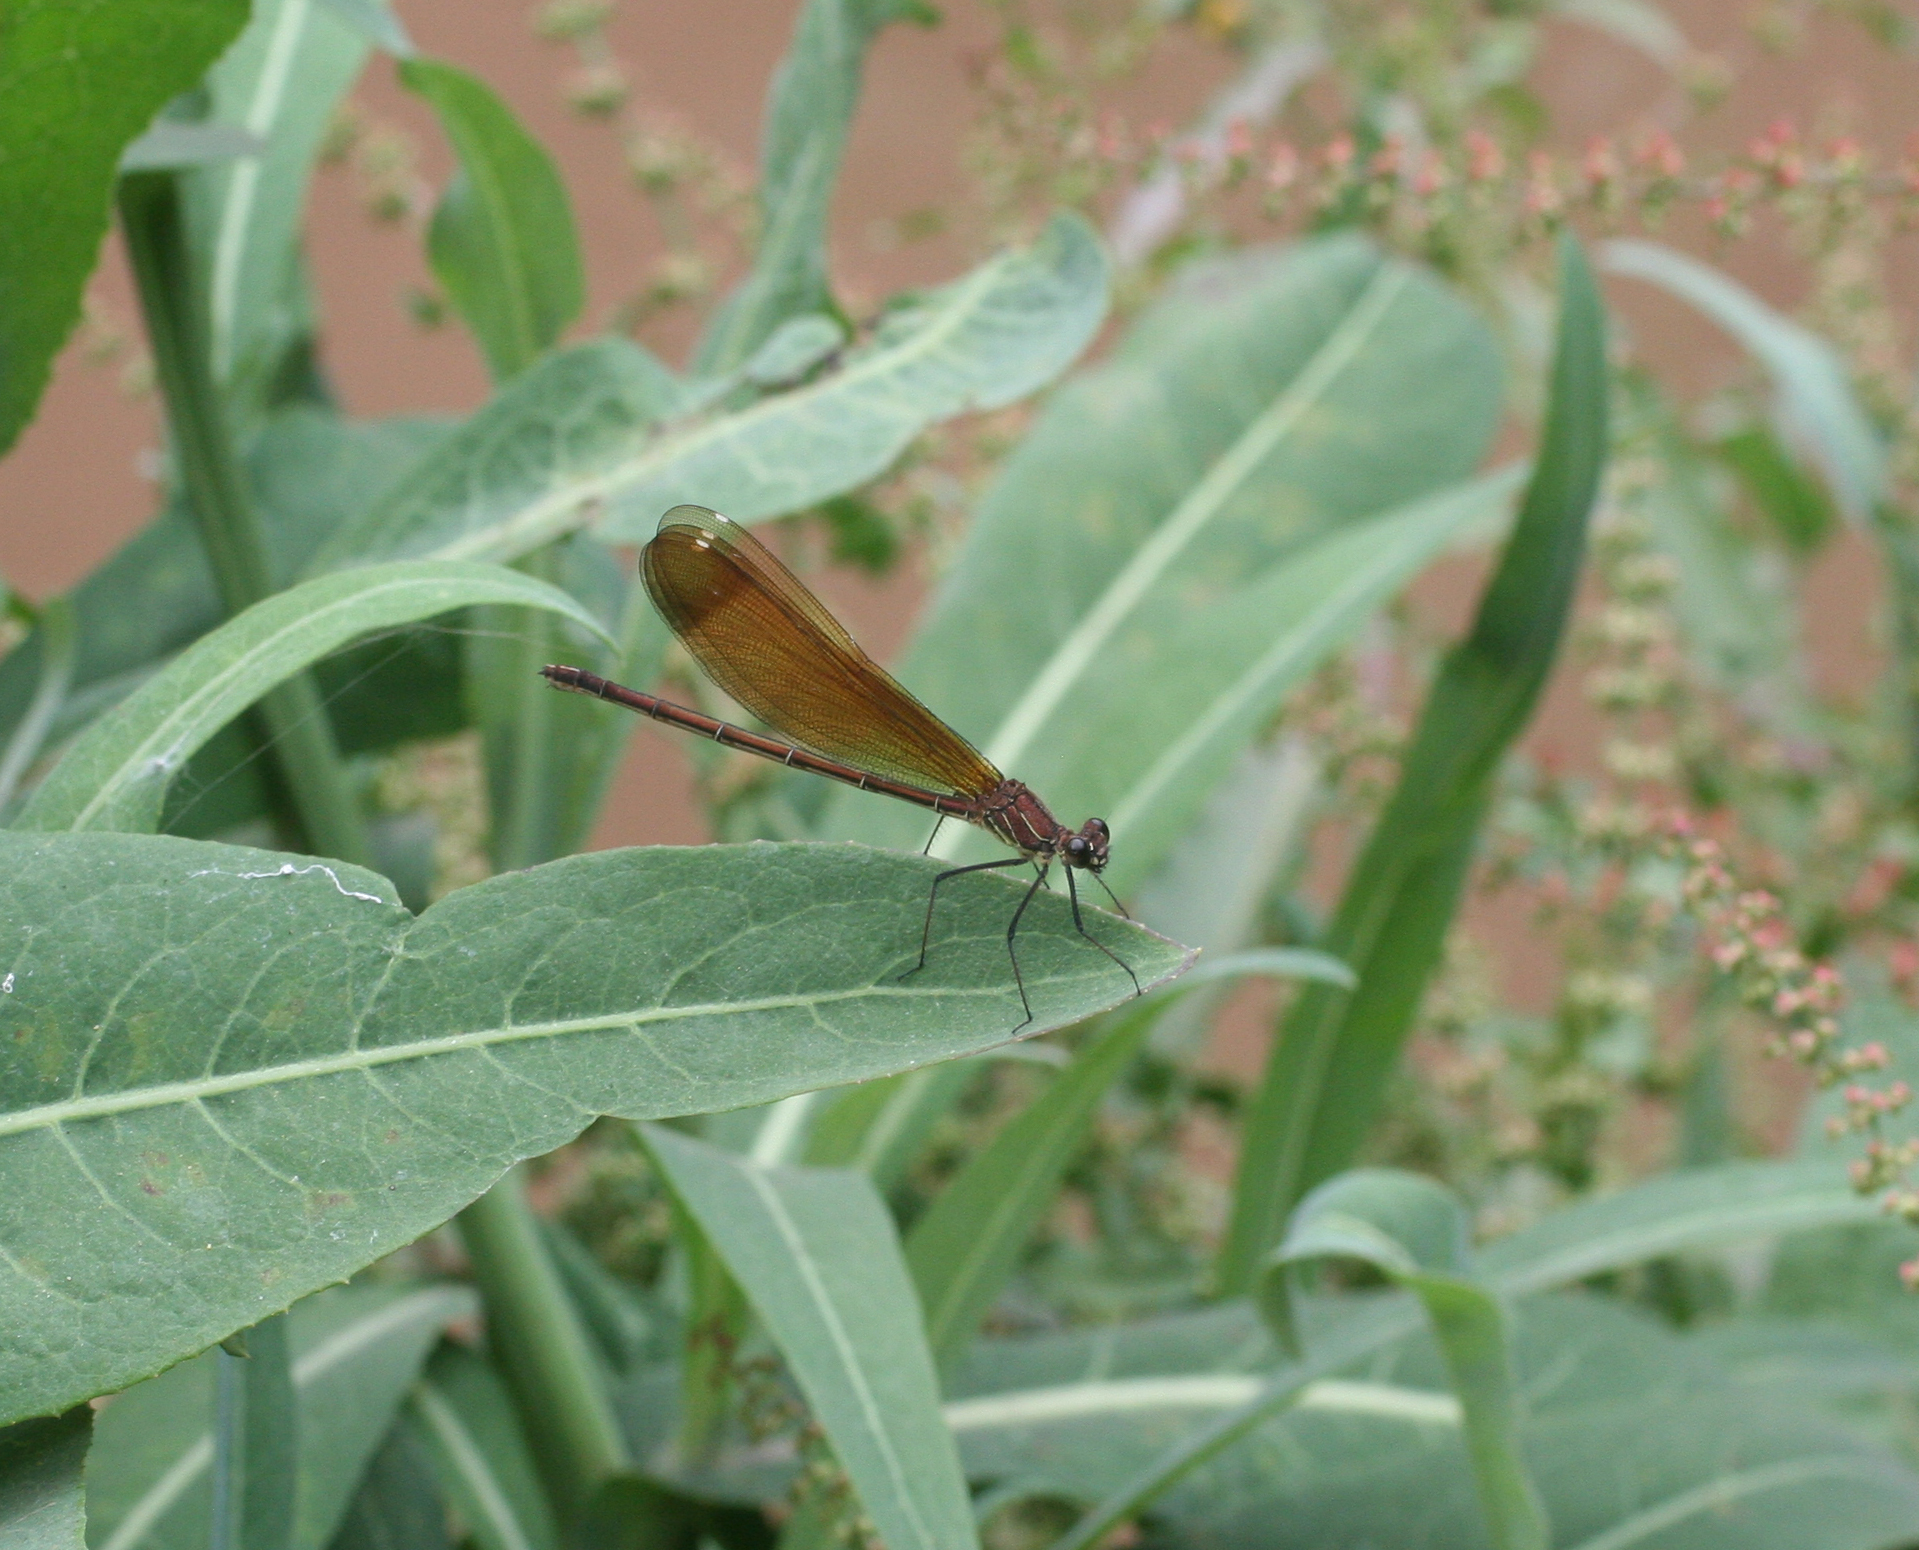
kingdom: Animalia
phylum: Arthropoda
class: Insecta
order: Odonata
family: Calopterygidae
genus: Calopteryx
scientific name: Calopteryx haemorrhoidalis
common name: Copper demoiselle
